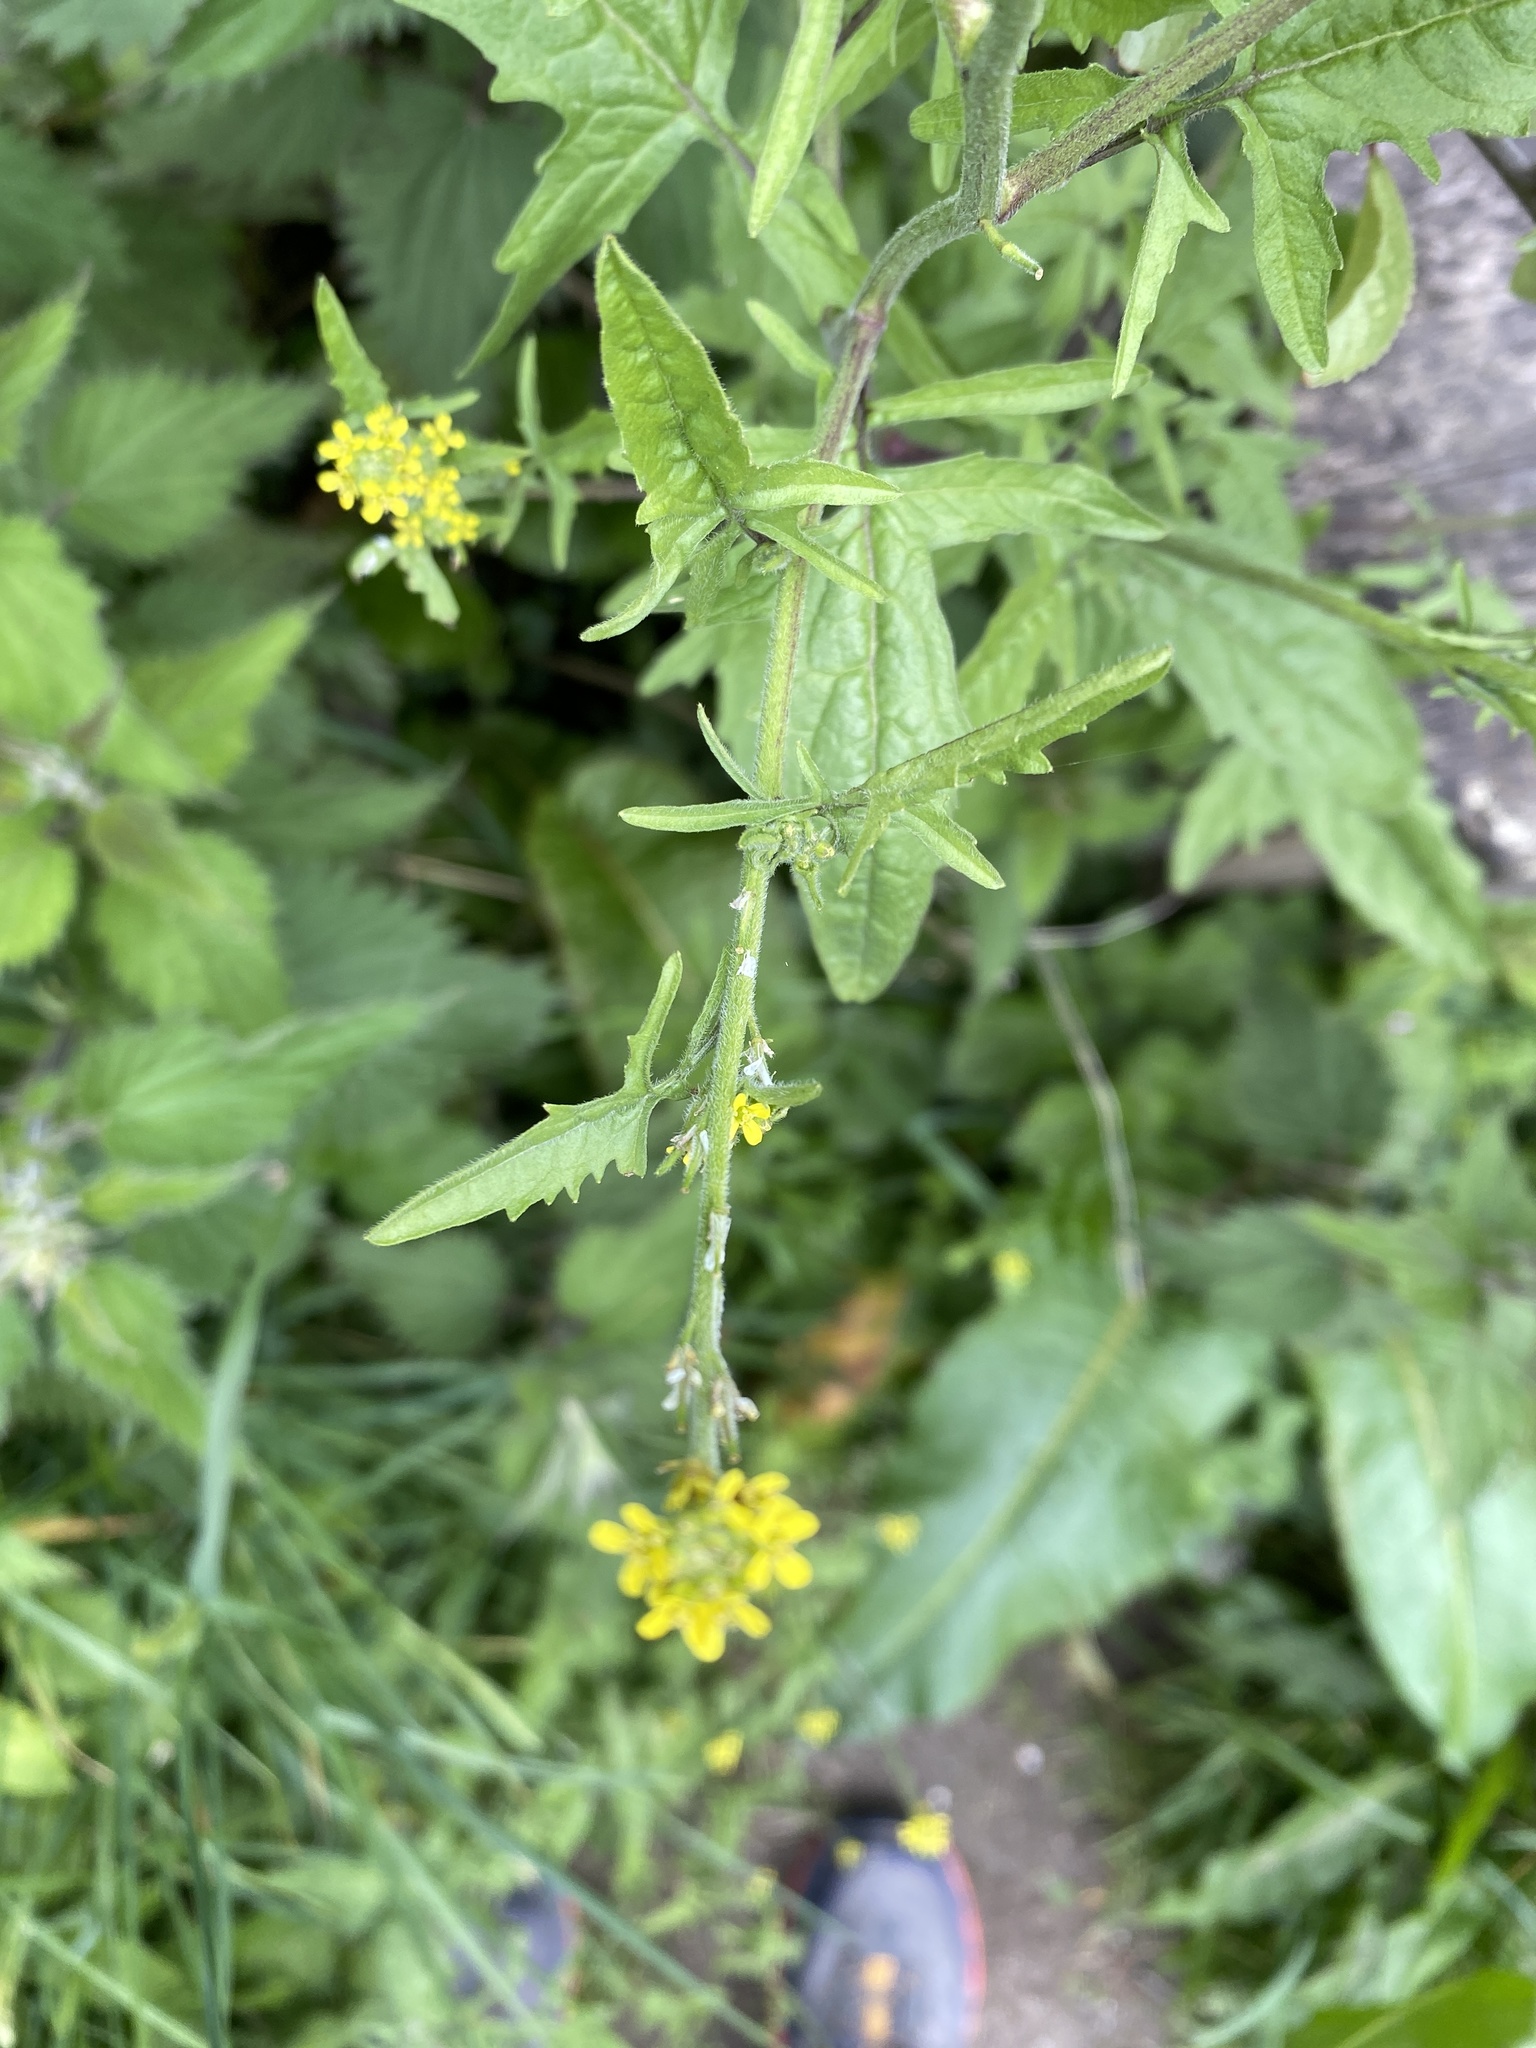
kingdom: Plantae
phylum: Tracheophyta
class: Magnoliopsida
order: Brassicales
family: Brassicaceae
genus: Sisymbrium
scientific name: Sisymbrium officinale
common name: Hedge mustard
